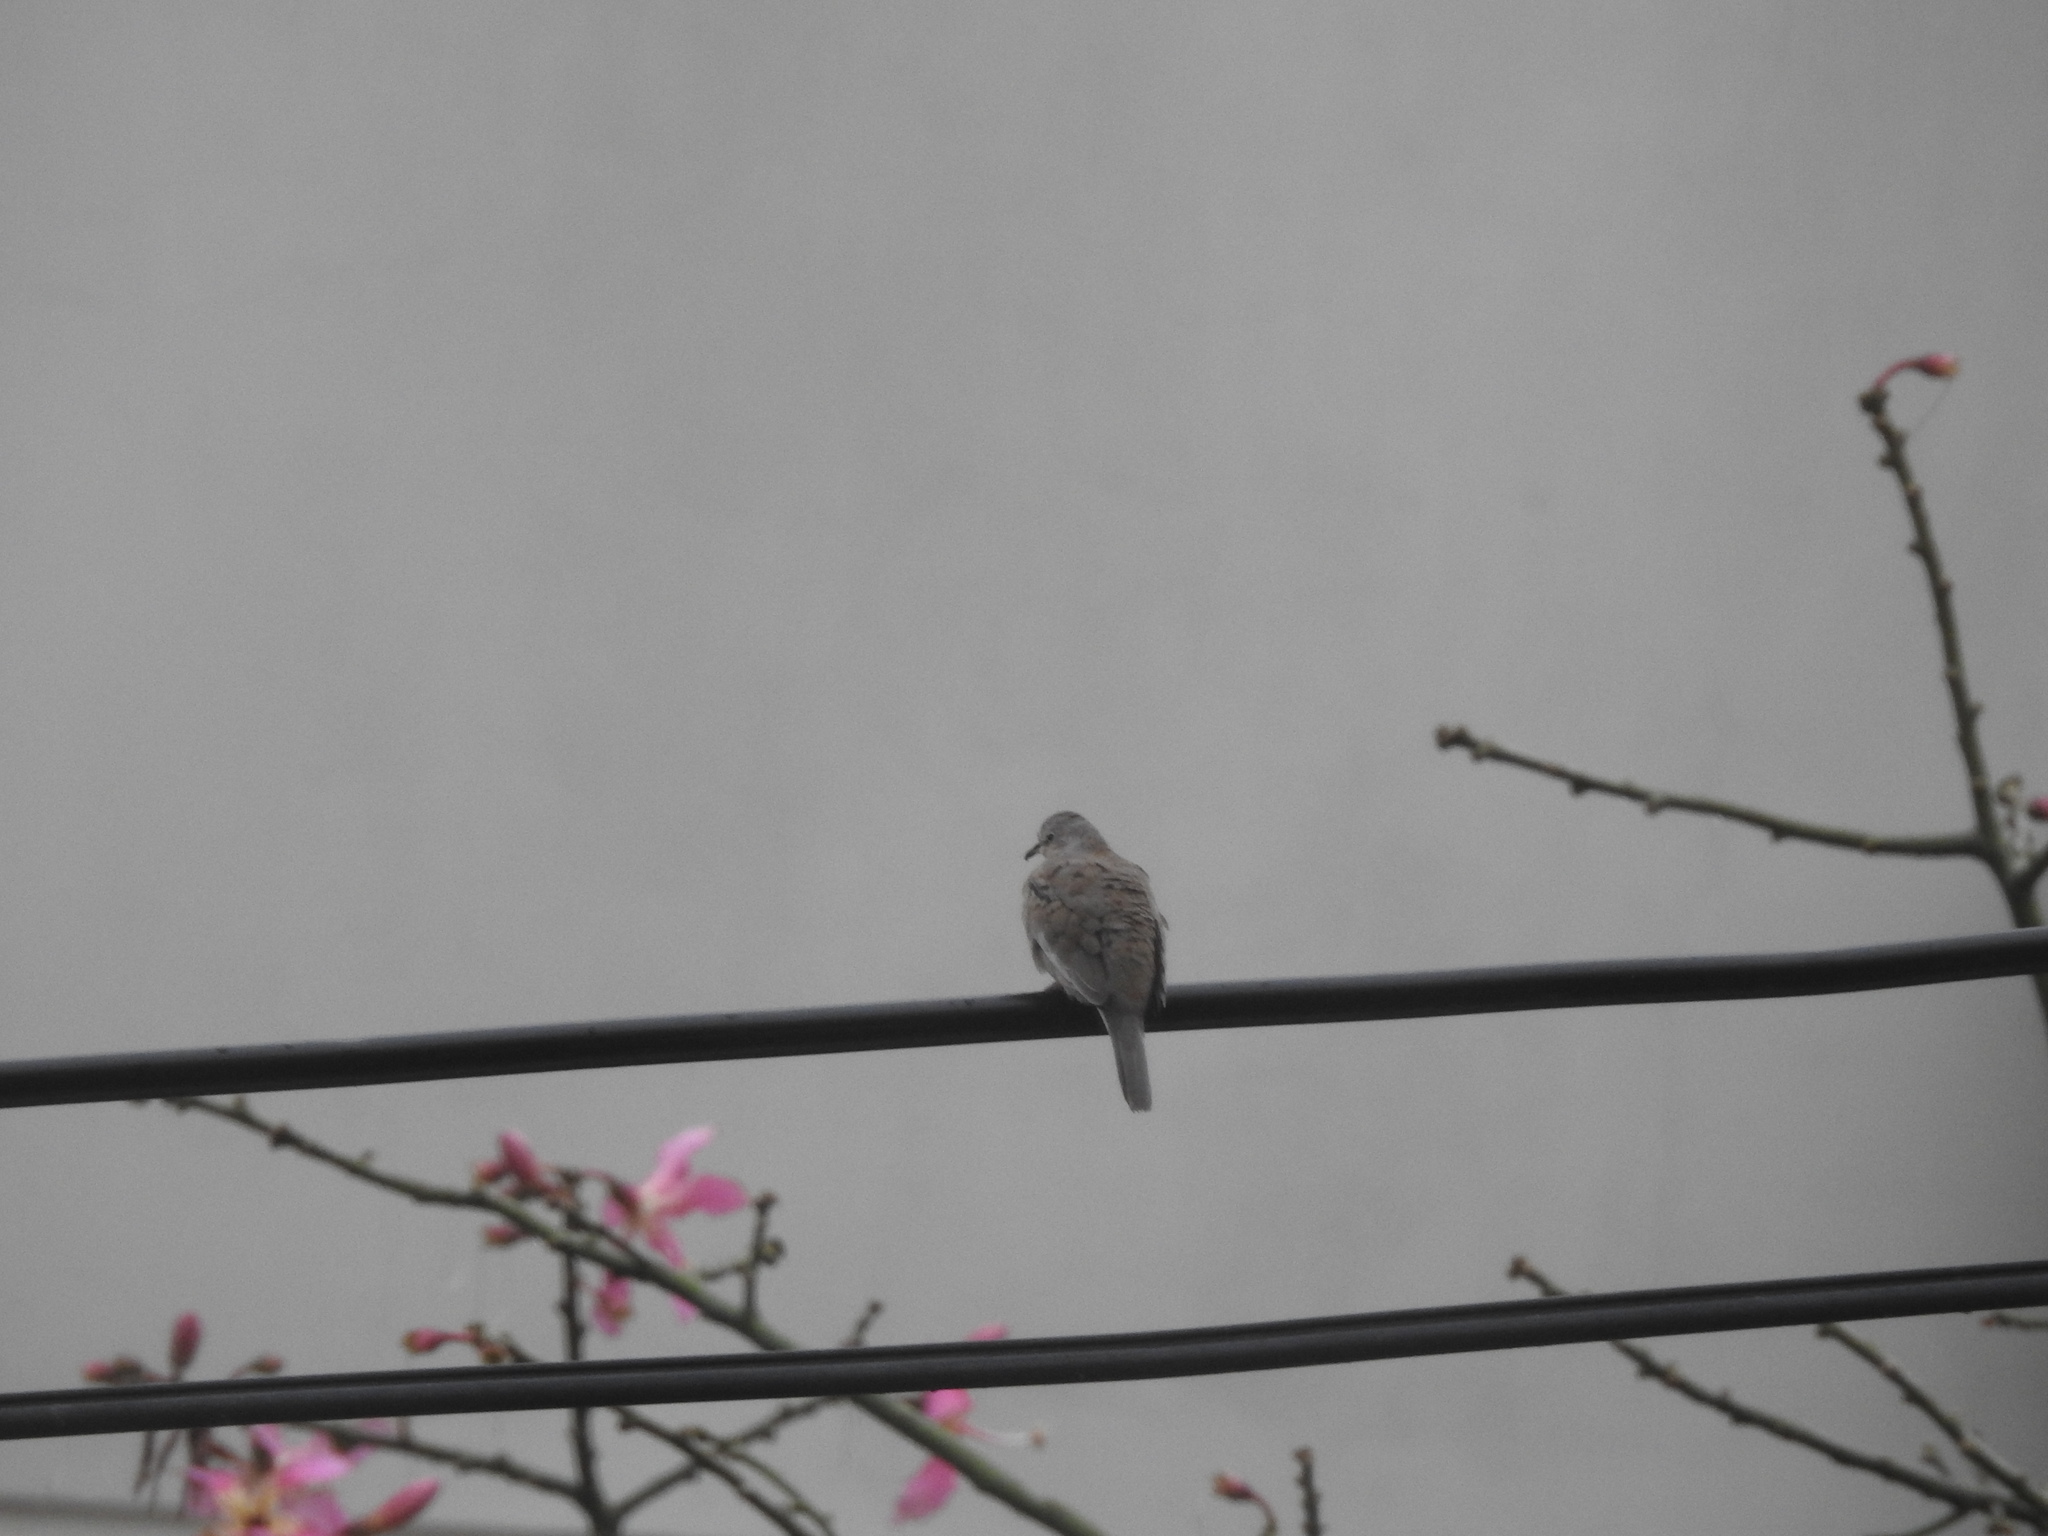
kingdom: Animalia
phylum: Chordata
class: Aves
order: Columbiformes
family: Columbidae
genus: Zenaida
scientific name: Zenaida auriculata
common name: Eared dove
